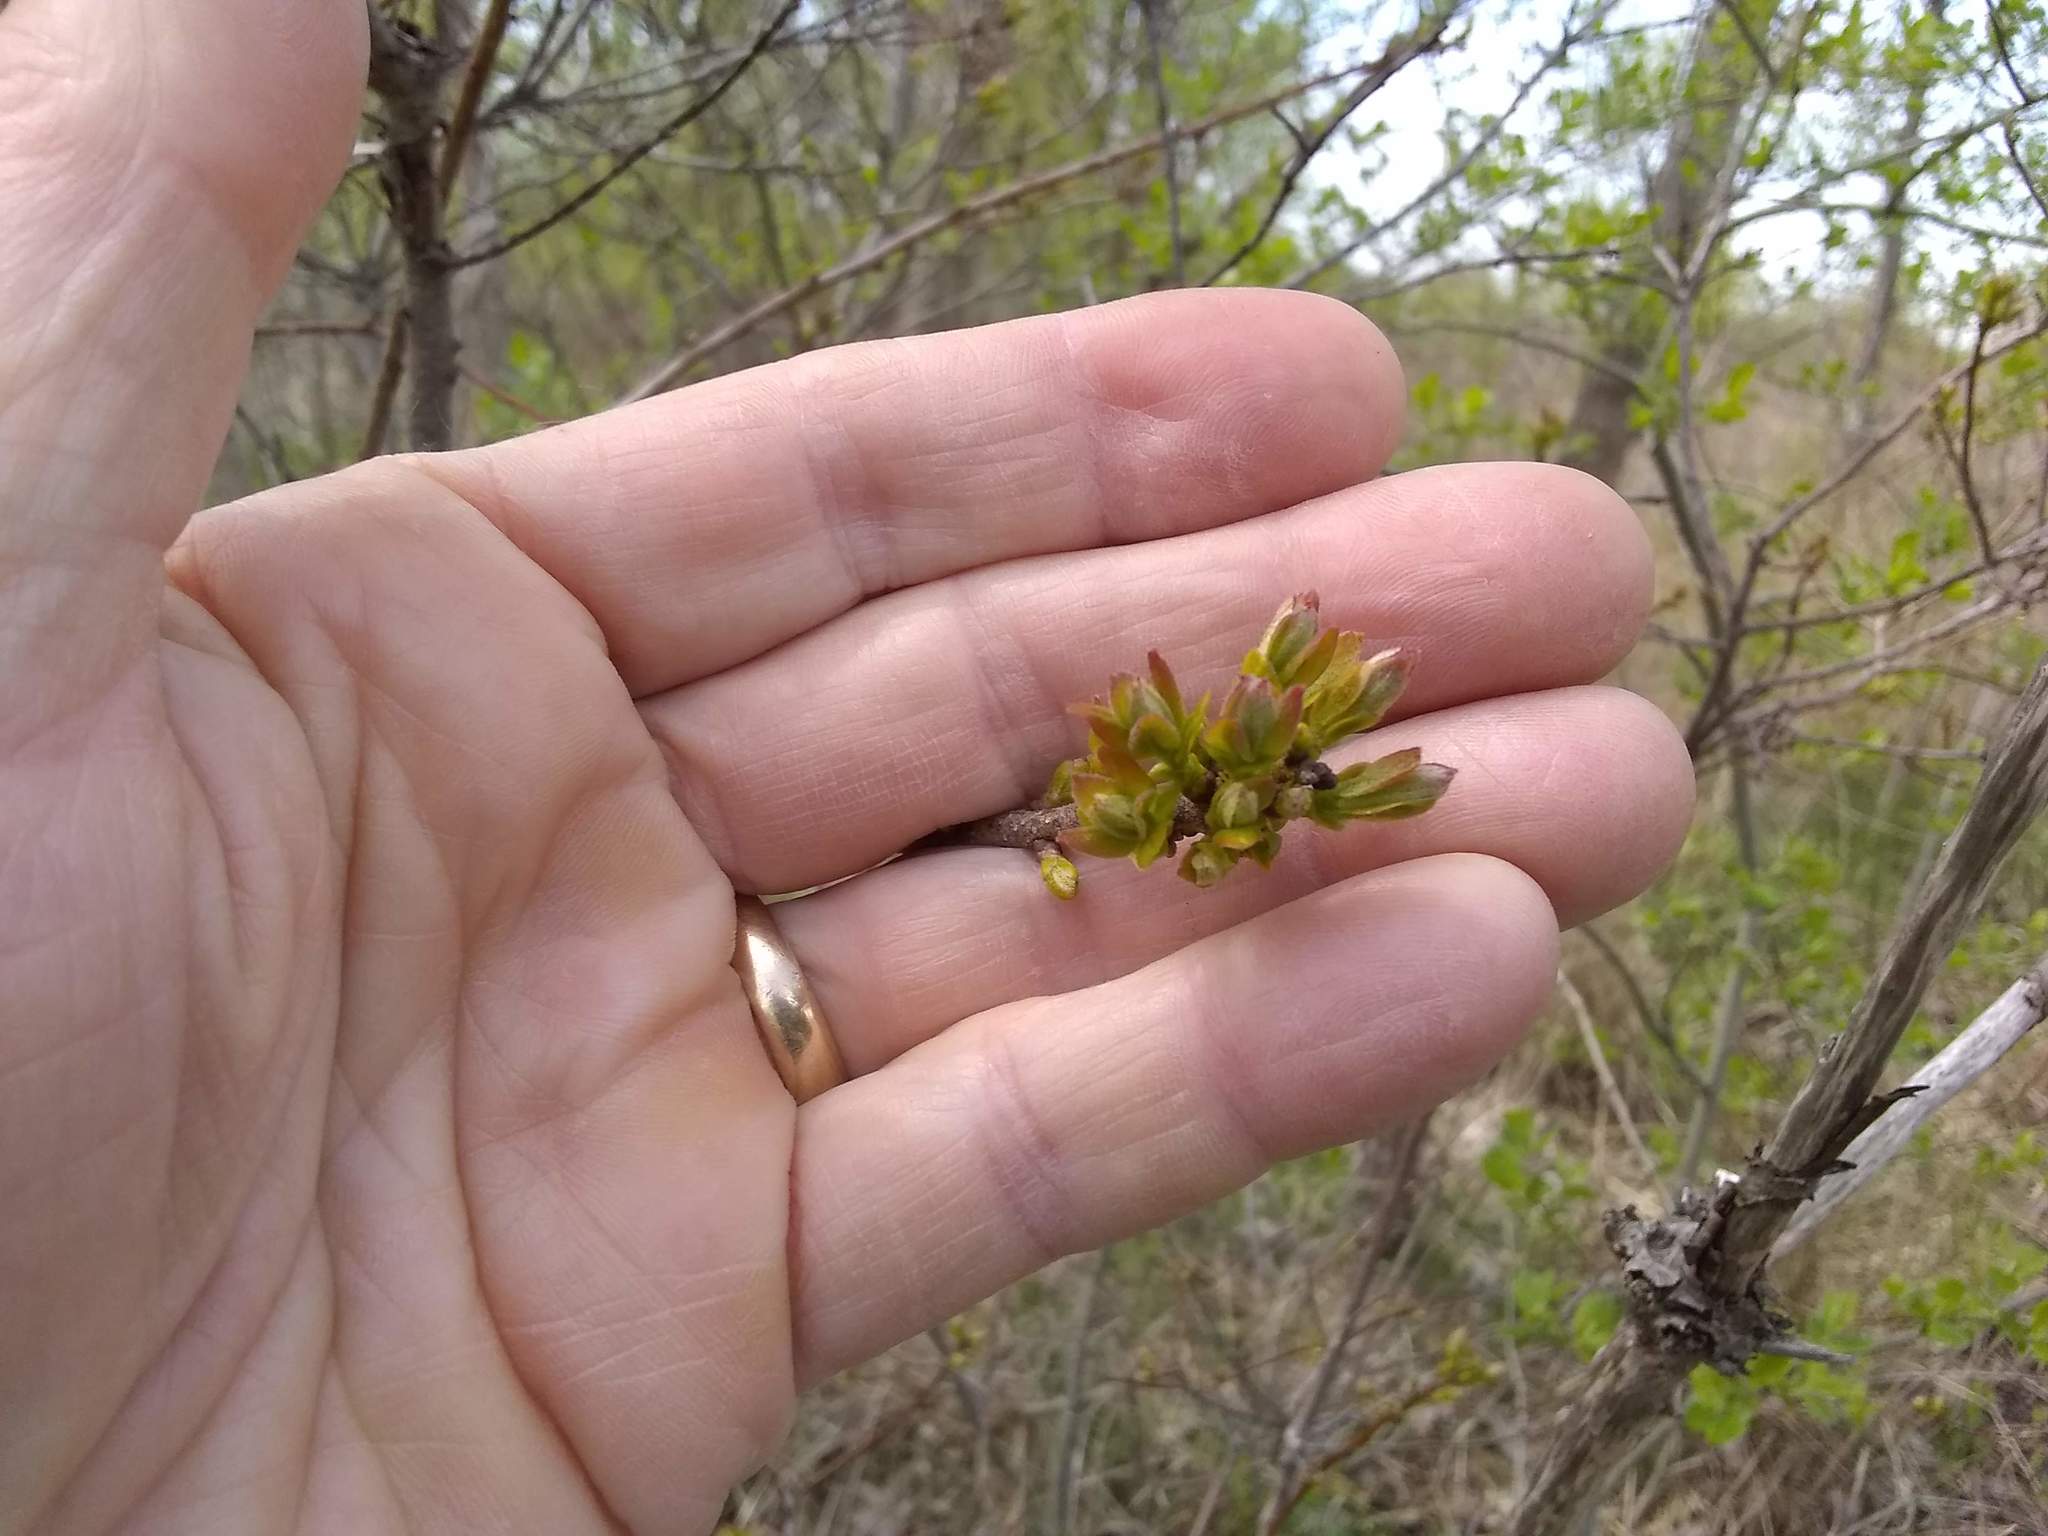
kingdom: Plantae
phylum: Tracheophyta
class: Magnoliopsida
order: Fagales
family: Myricaceae
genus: Morella
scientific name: Morella pensylvanica
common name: Northern bayberry
